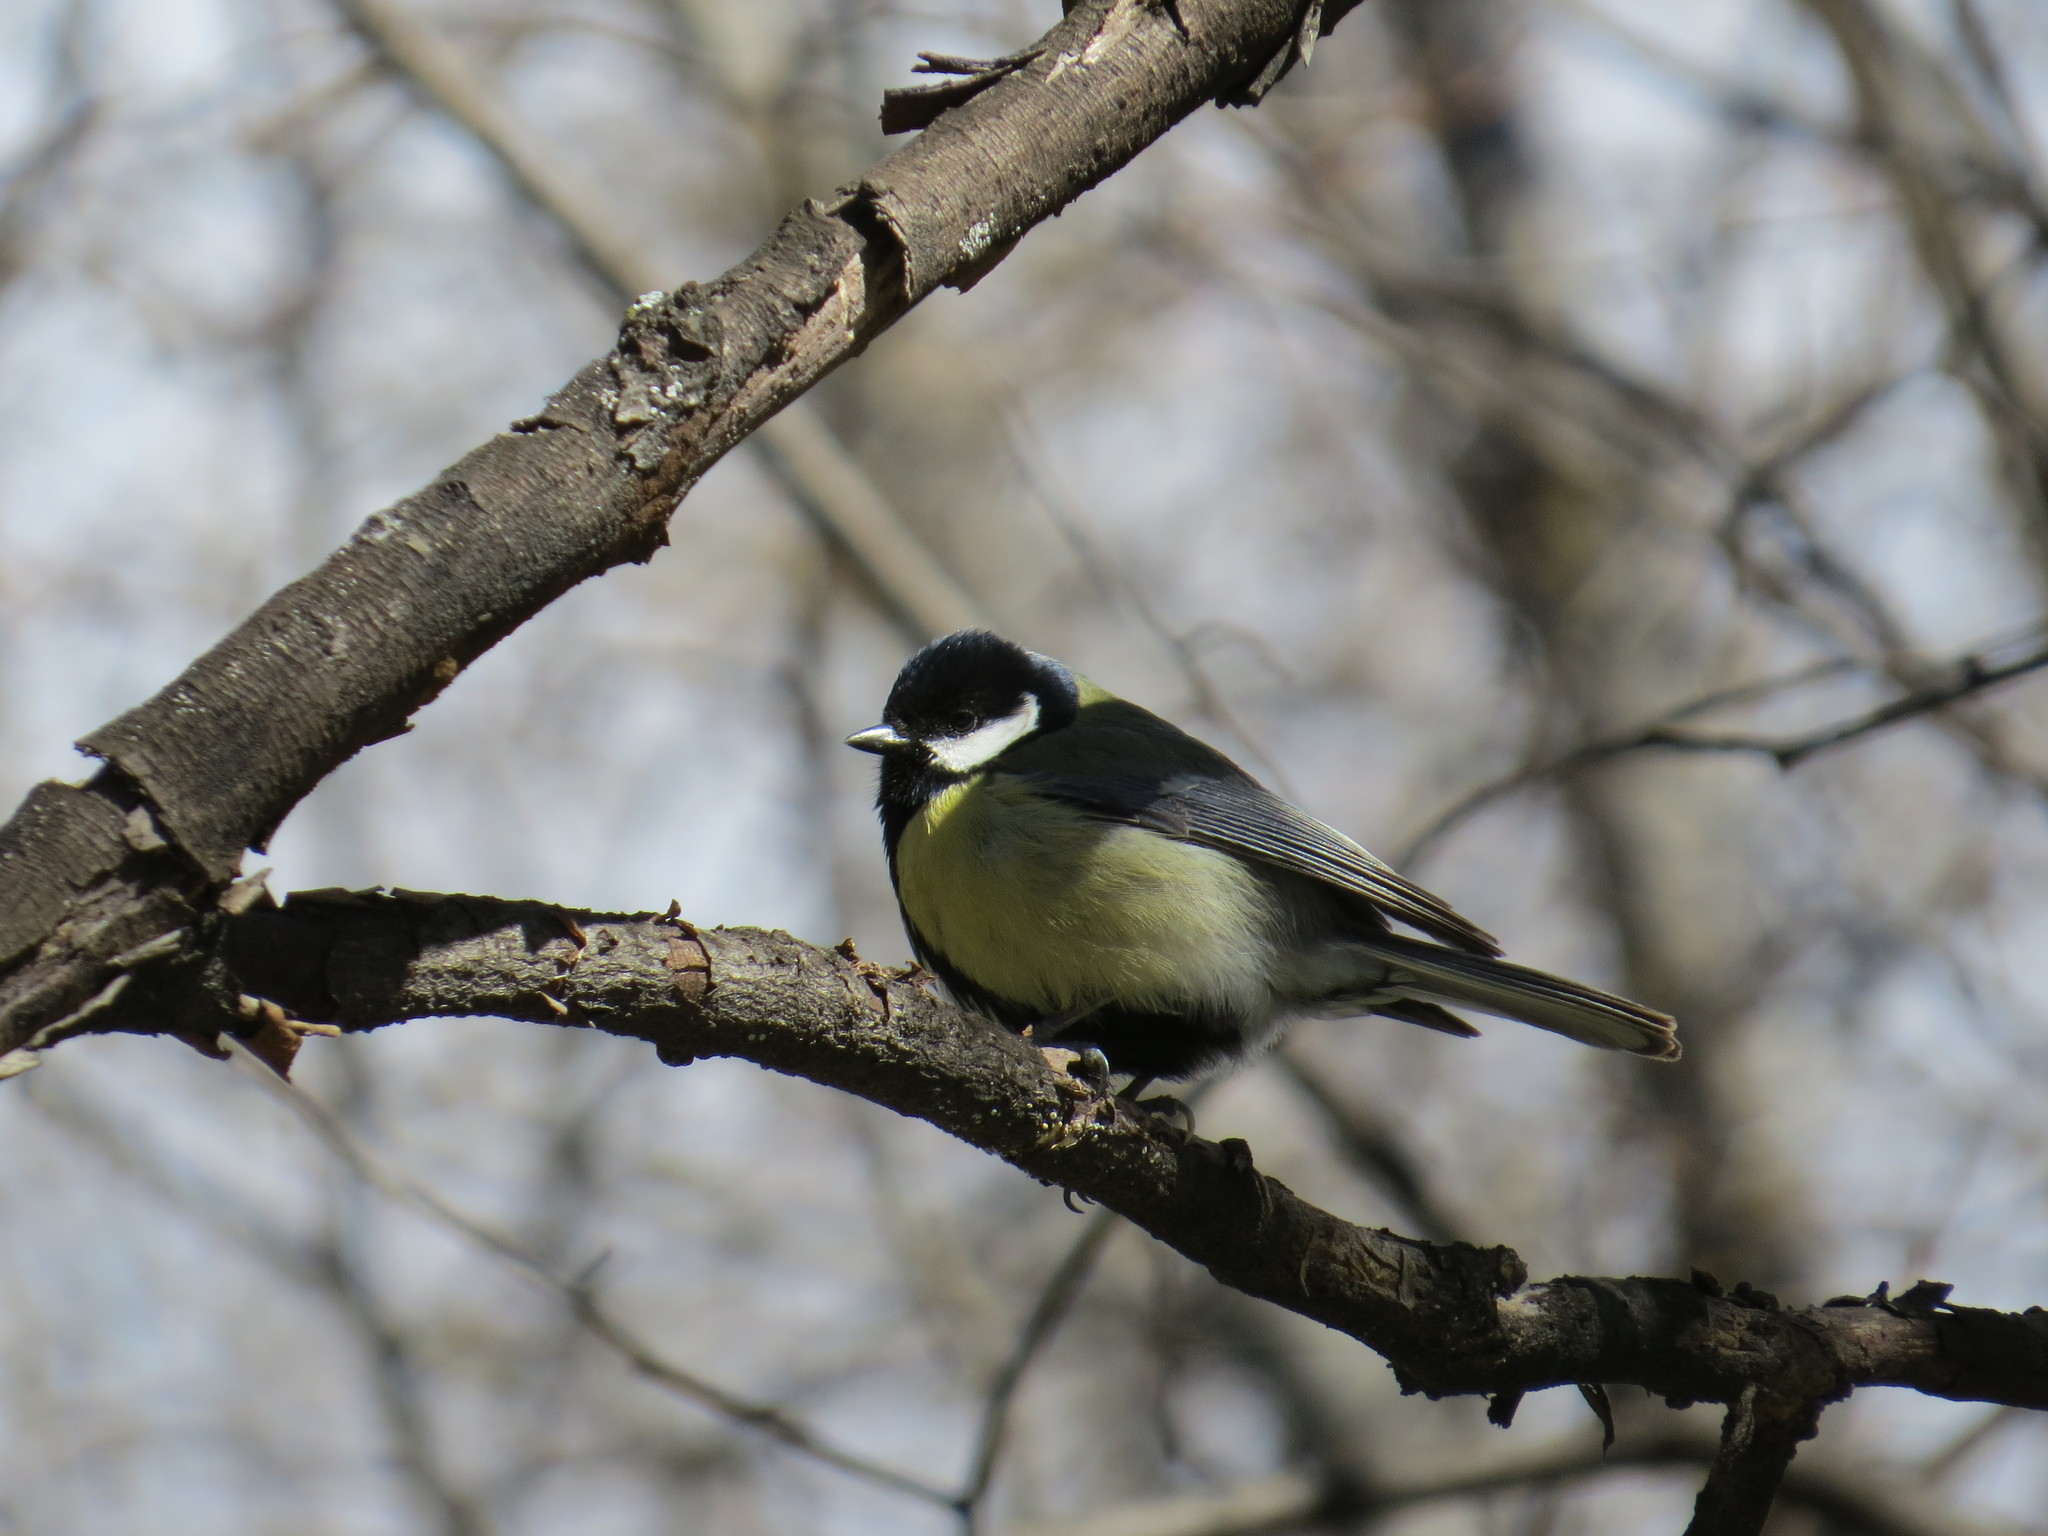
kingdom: Animalia
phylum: Chordata
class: Aves
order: Passeriformes
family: Paridae
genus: Parus
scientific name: Parus major
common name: Great tit
